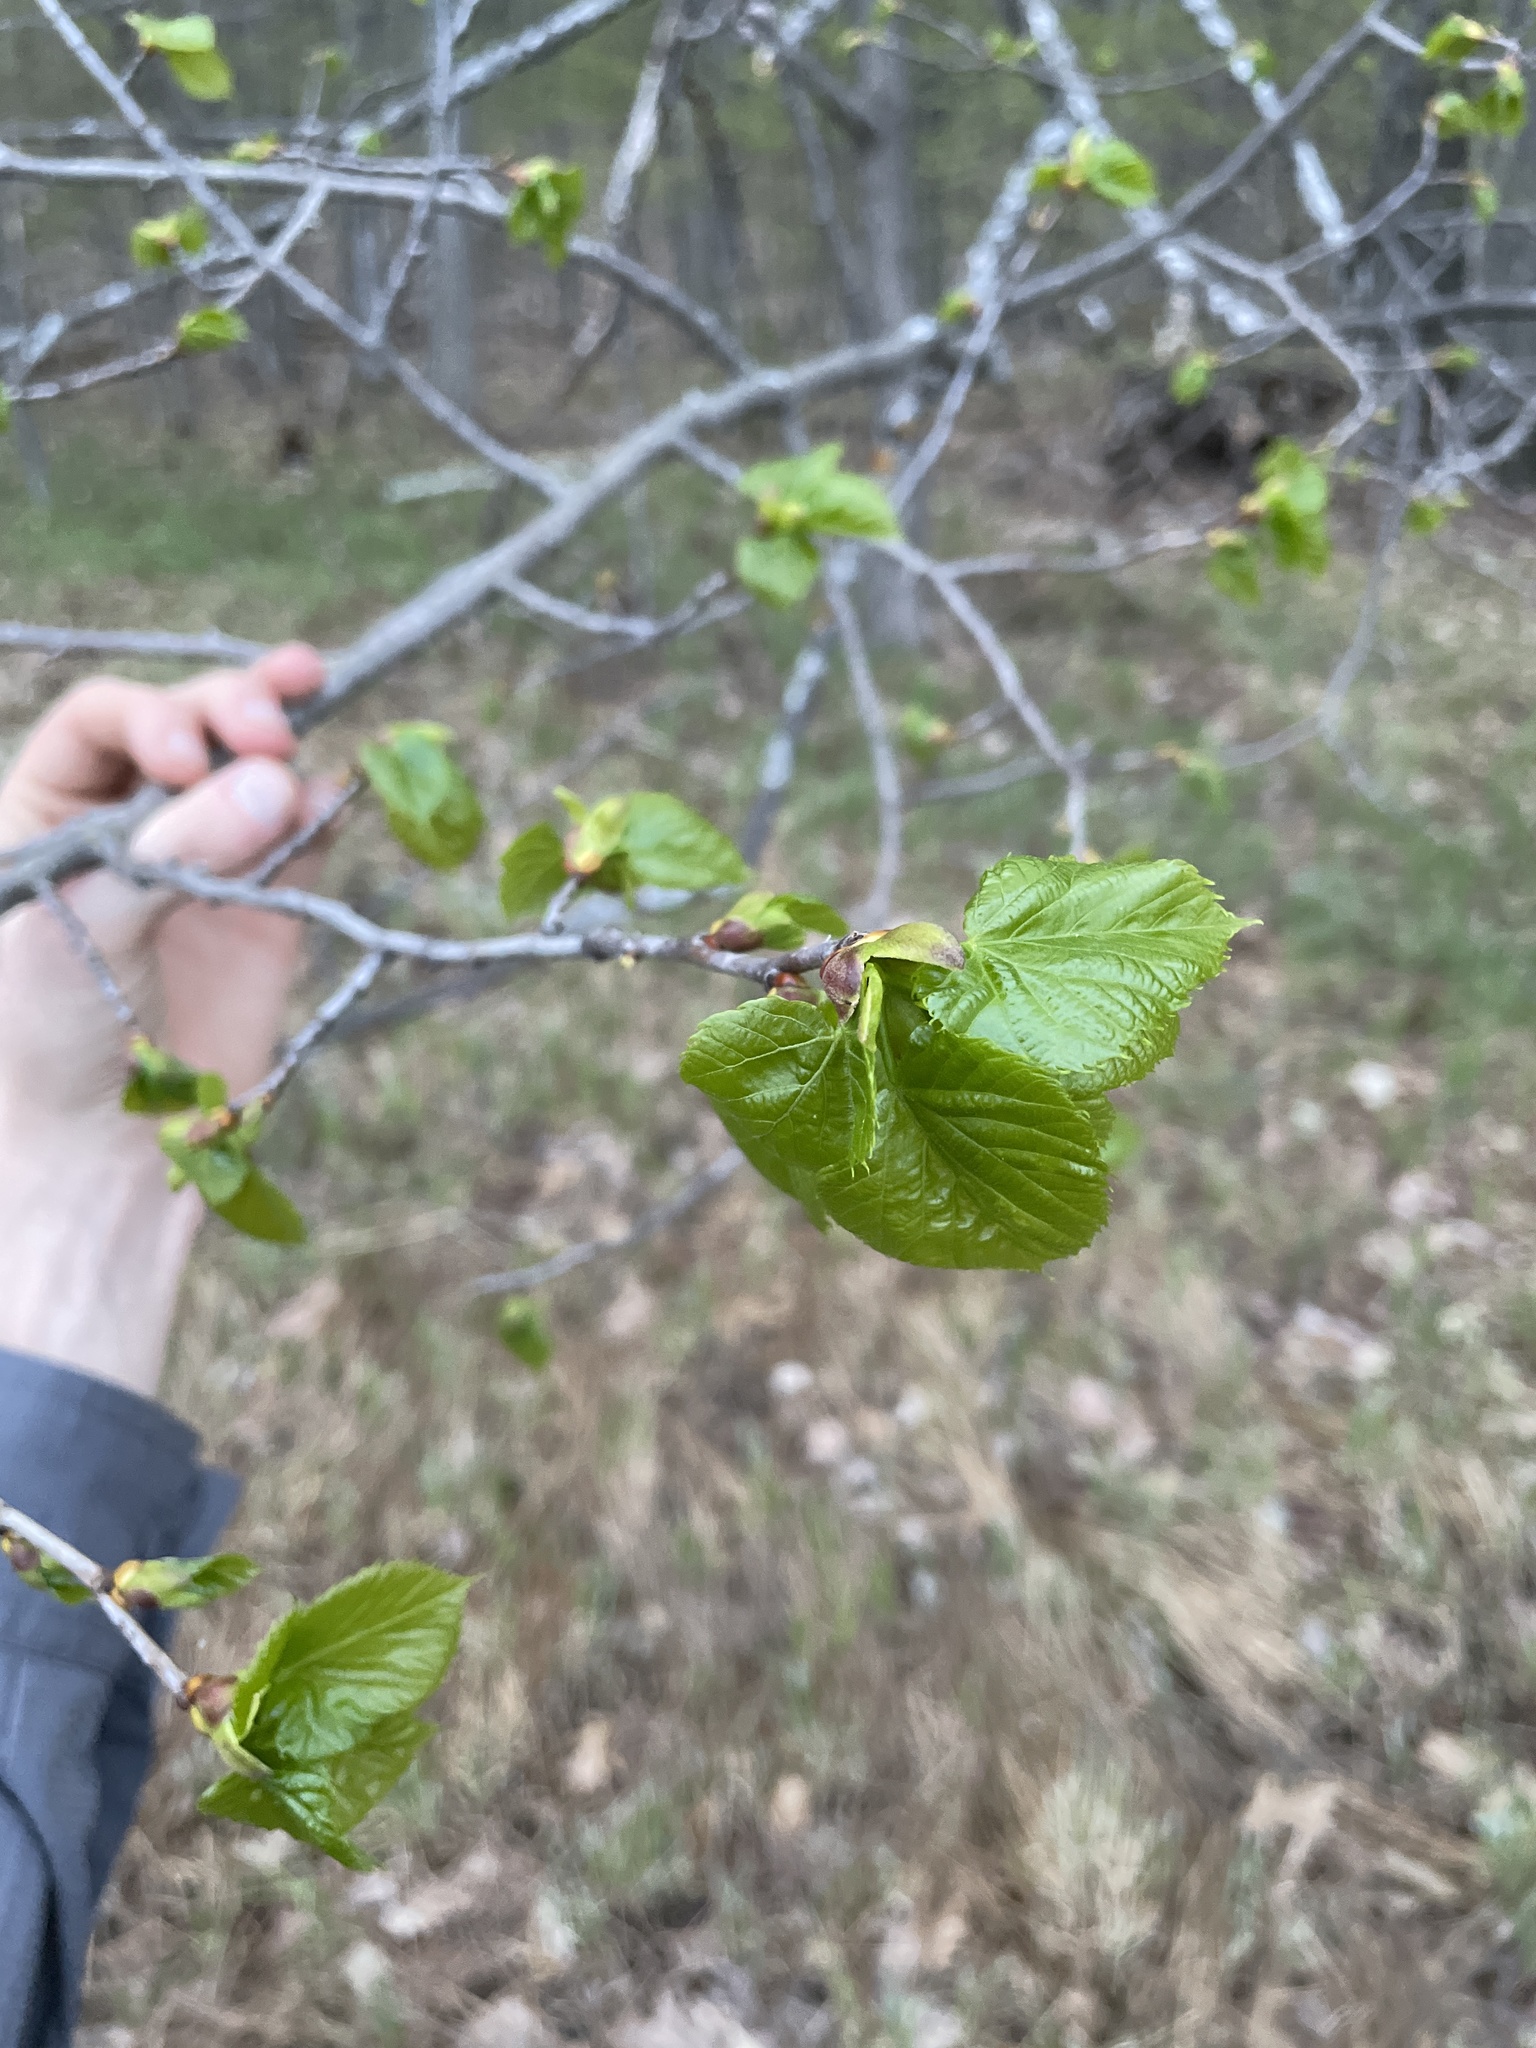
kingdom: Plantae
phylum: Tracheophyta
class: Magnoliopsida
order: Malvales
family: Malvaceae
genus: Tilia
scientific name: Tilia americana
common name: Basswood
